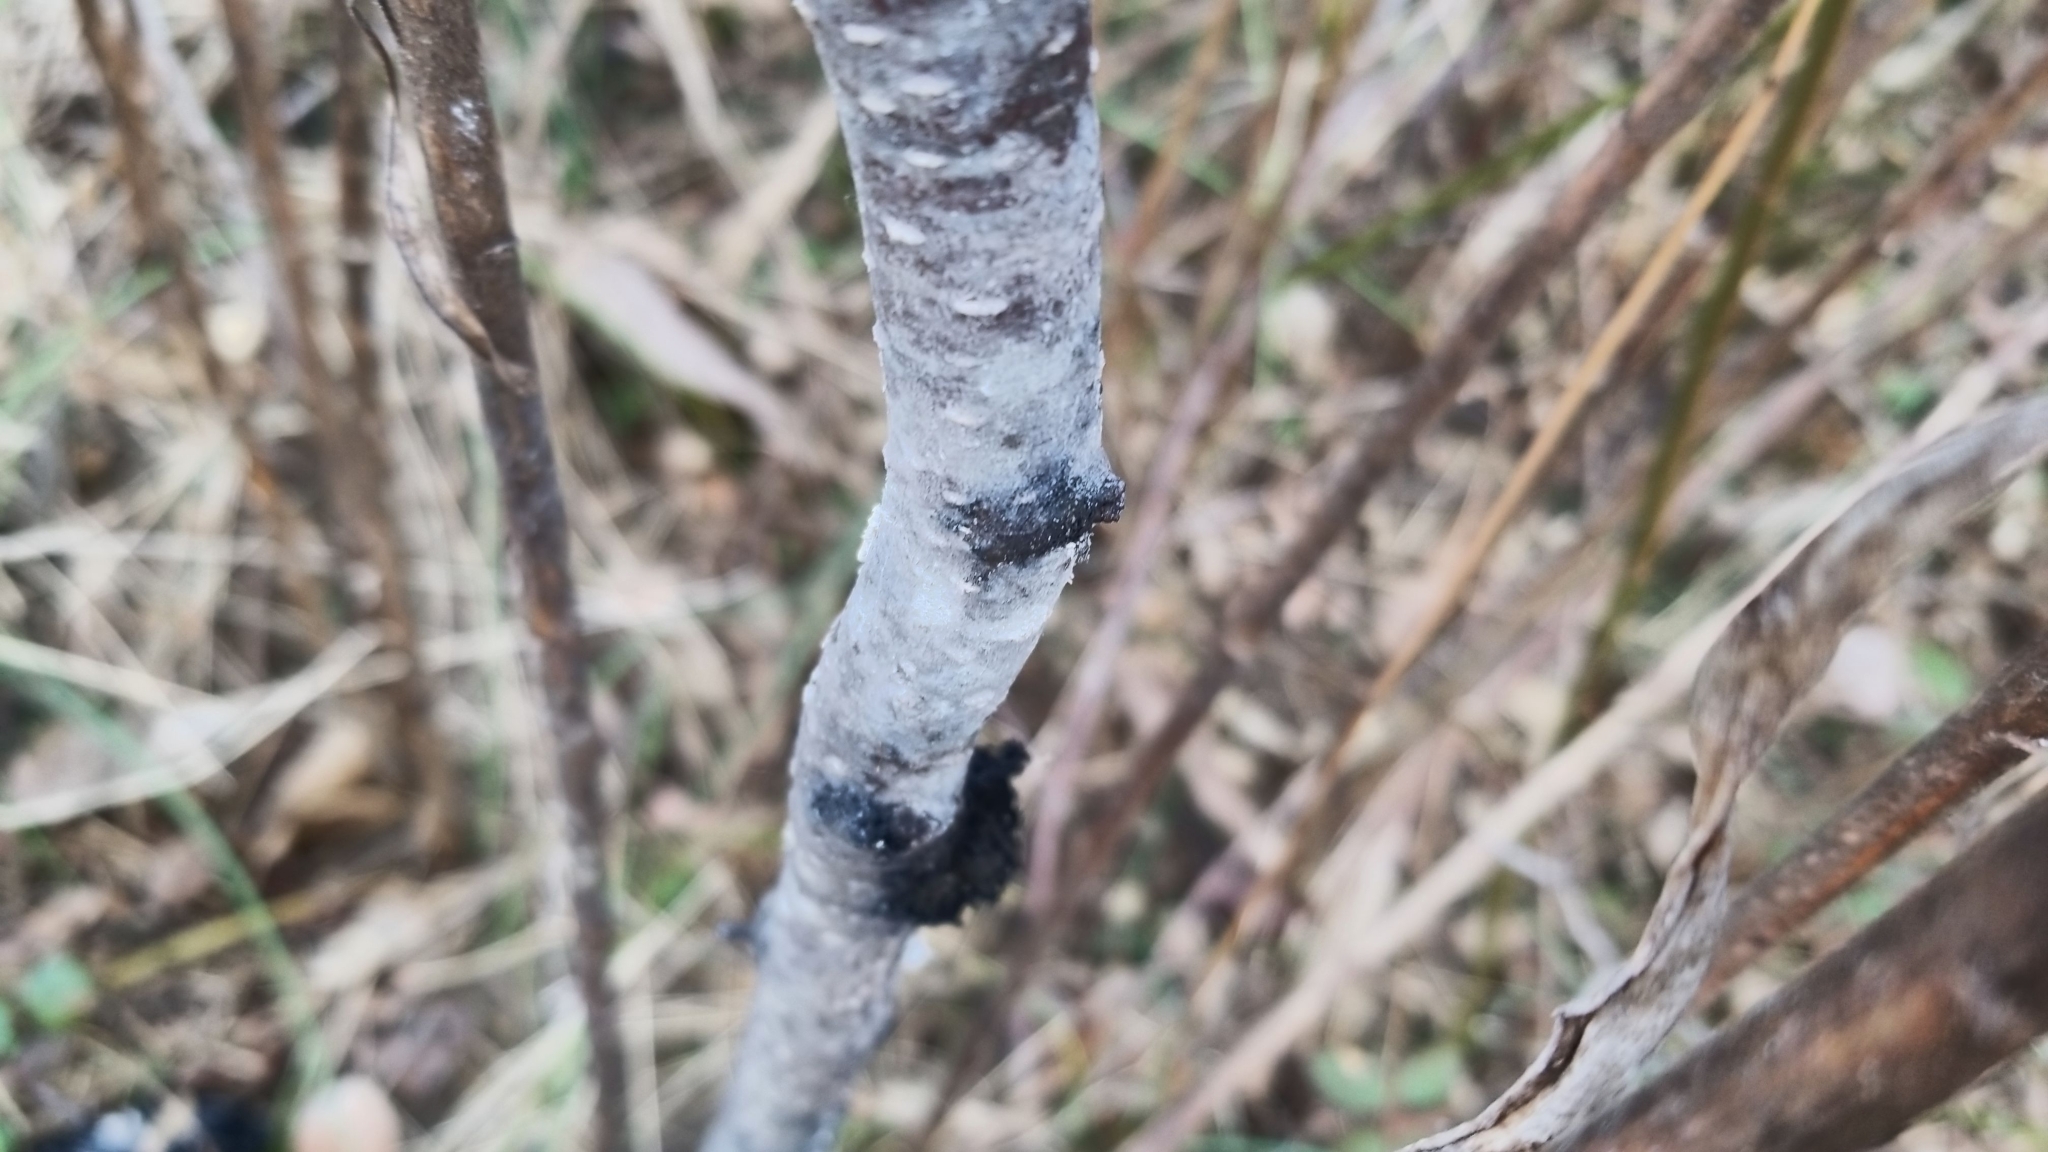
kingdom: Fungi
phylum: Ascomycota
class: Dothideomycetes
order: Capnodiales
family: Capnodiaceae
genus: Scorias
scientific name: Scorias spongiosa
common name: Black sooty mold
